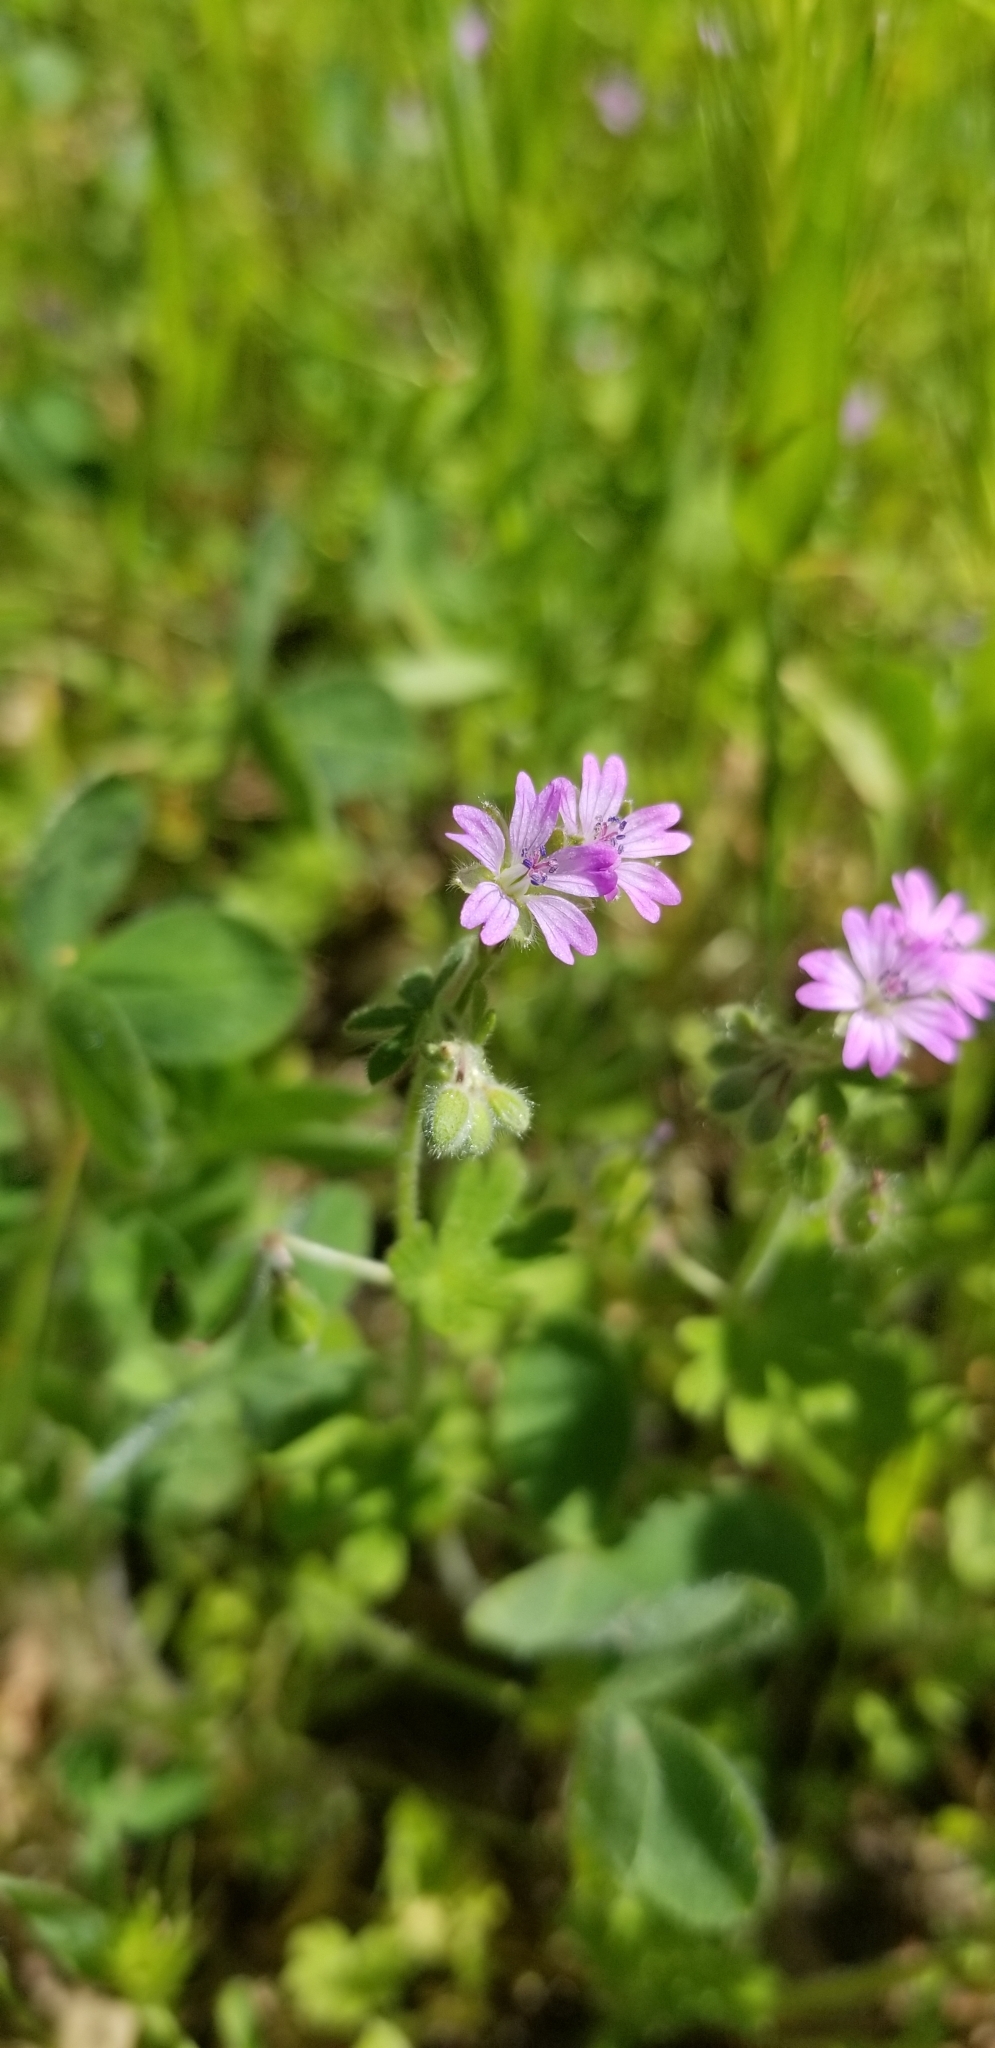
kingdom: Plantae
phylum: Tracheophyta
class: Magnoliopsida
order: Geraniales
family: Geraniaceae
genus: Geranium
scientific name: Geranium molle
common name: Dove's-foot crane's-bill
